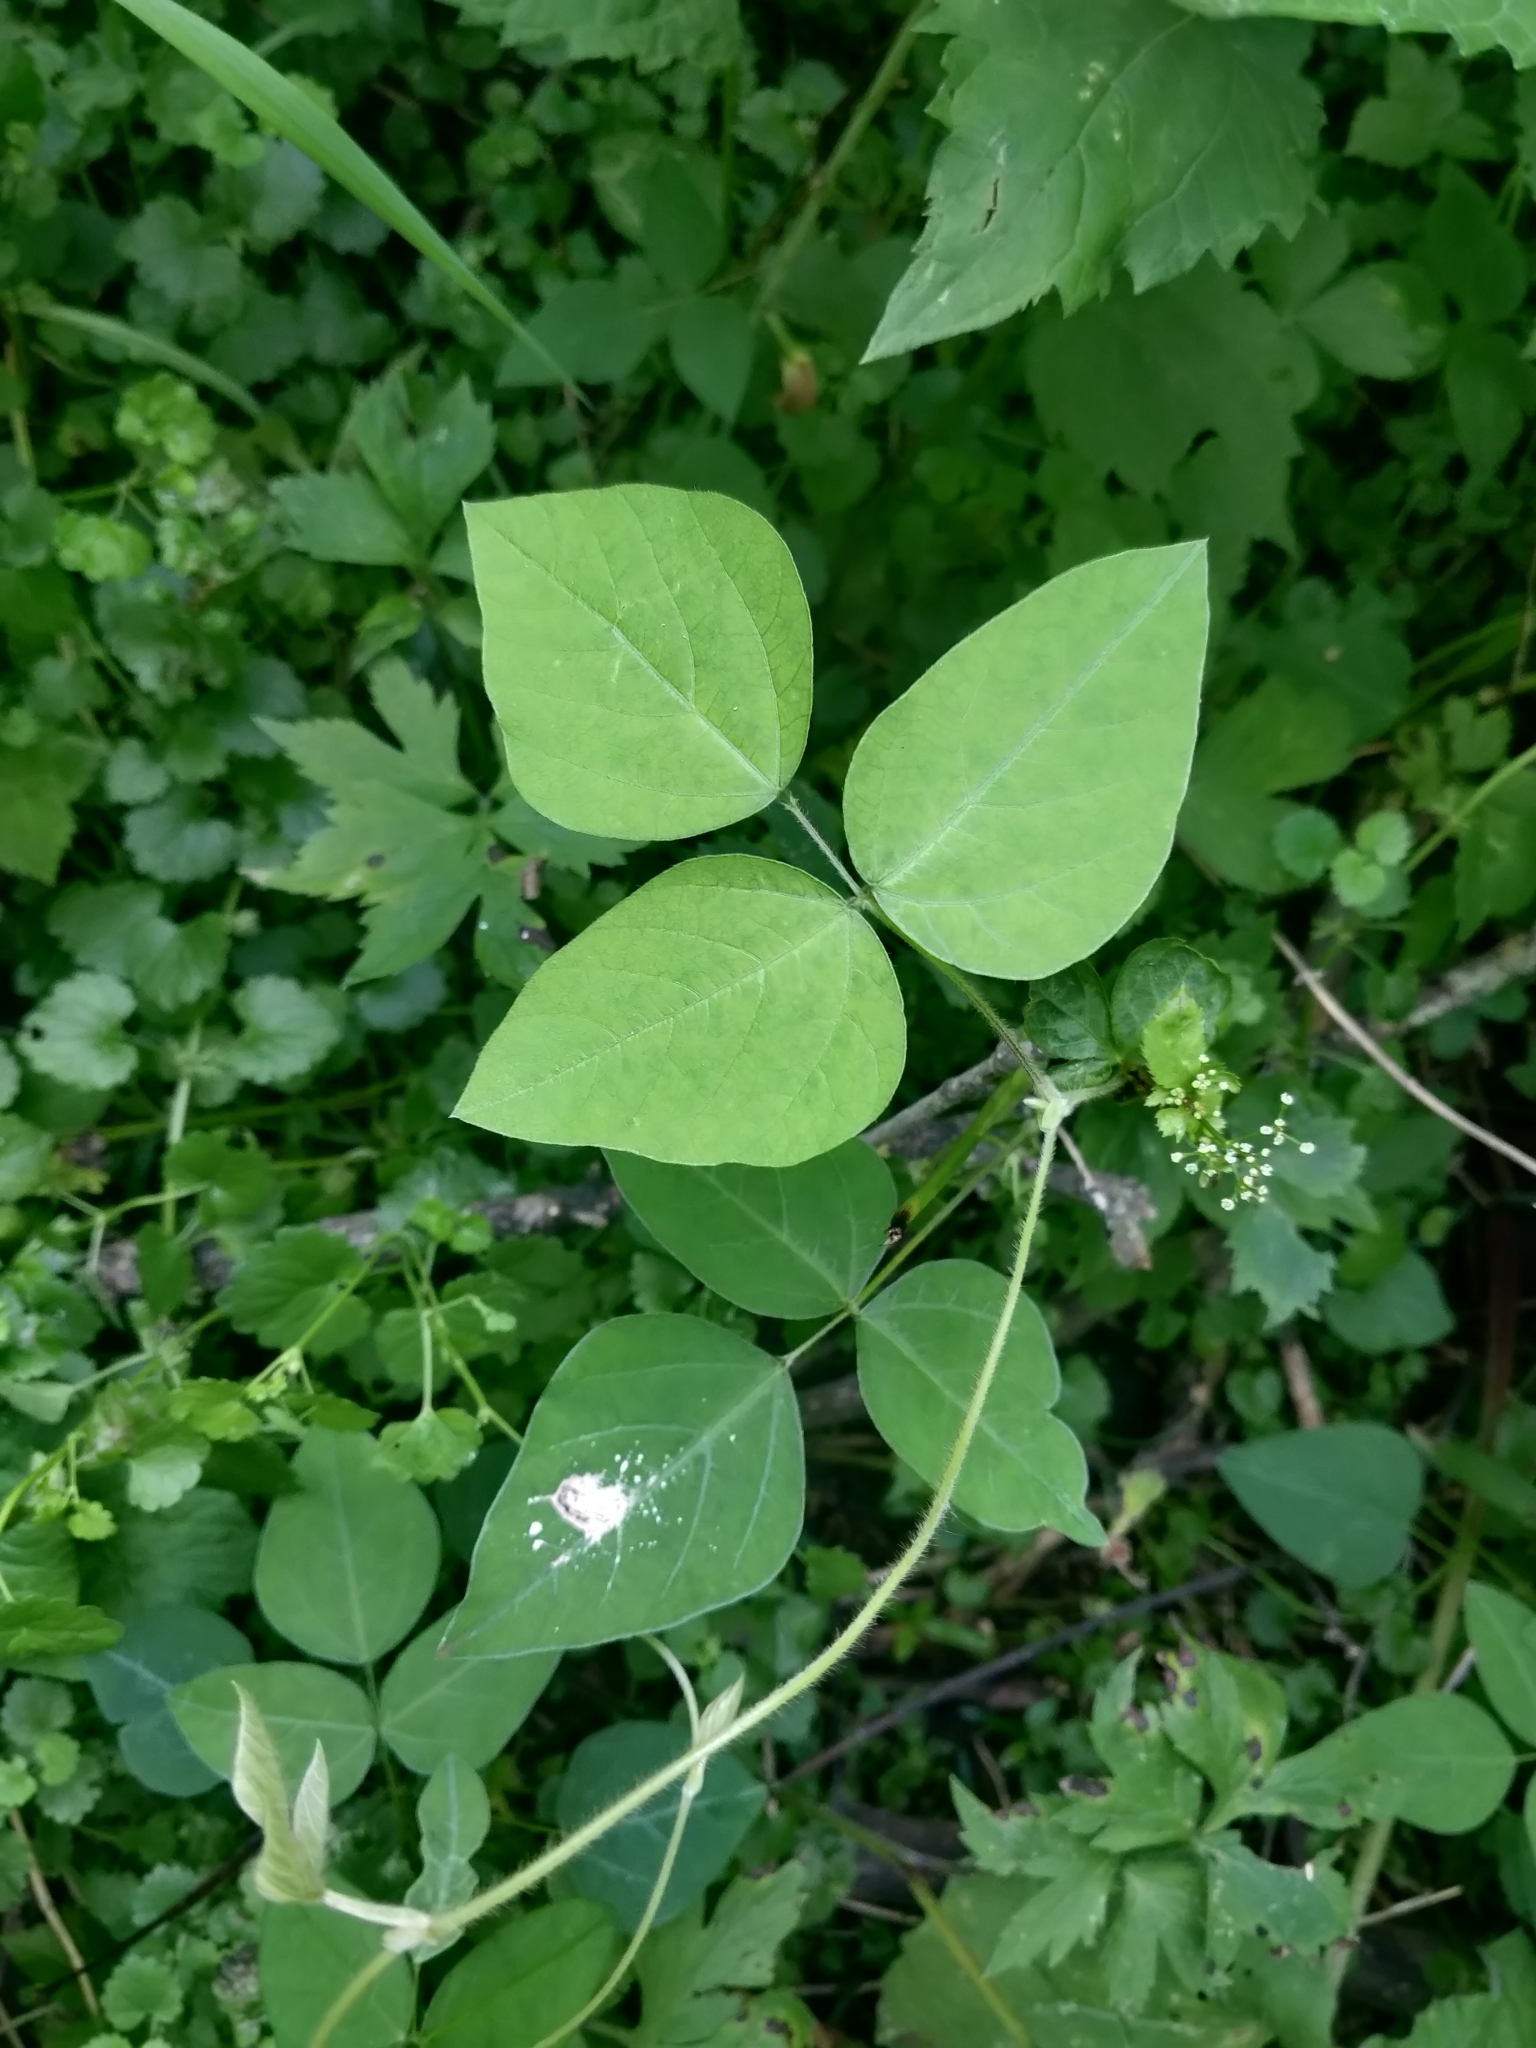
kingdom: Plantae
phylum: Tracheophyta
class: Magnoliopsida
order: Fabales
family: Fabaceae
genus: Amphicarpaea
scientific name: Amphicarpaea bracteata
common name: American hog peanut
